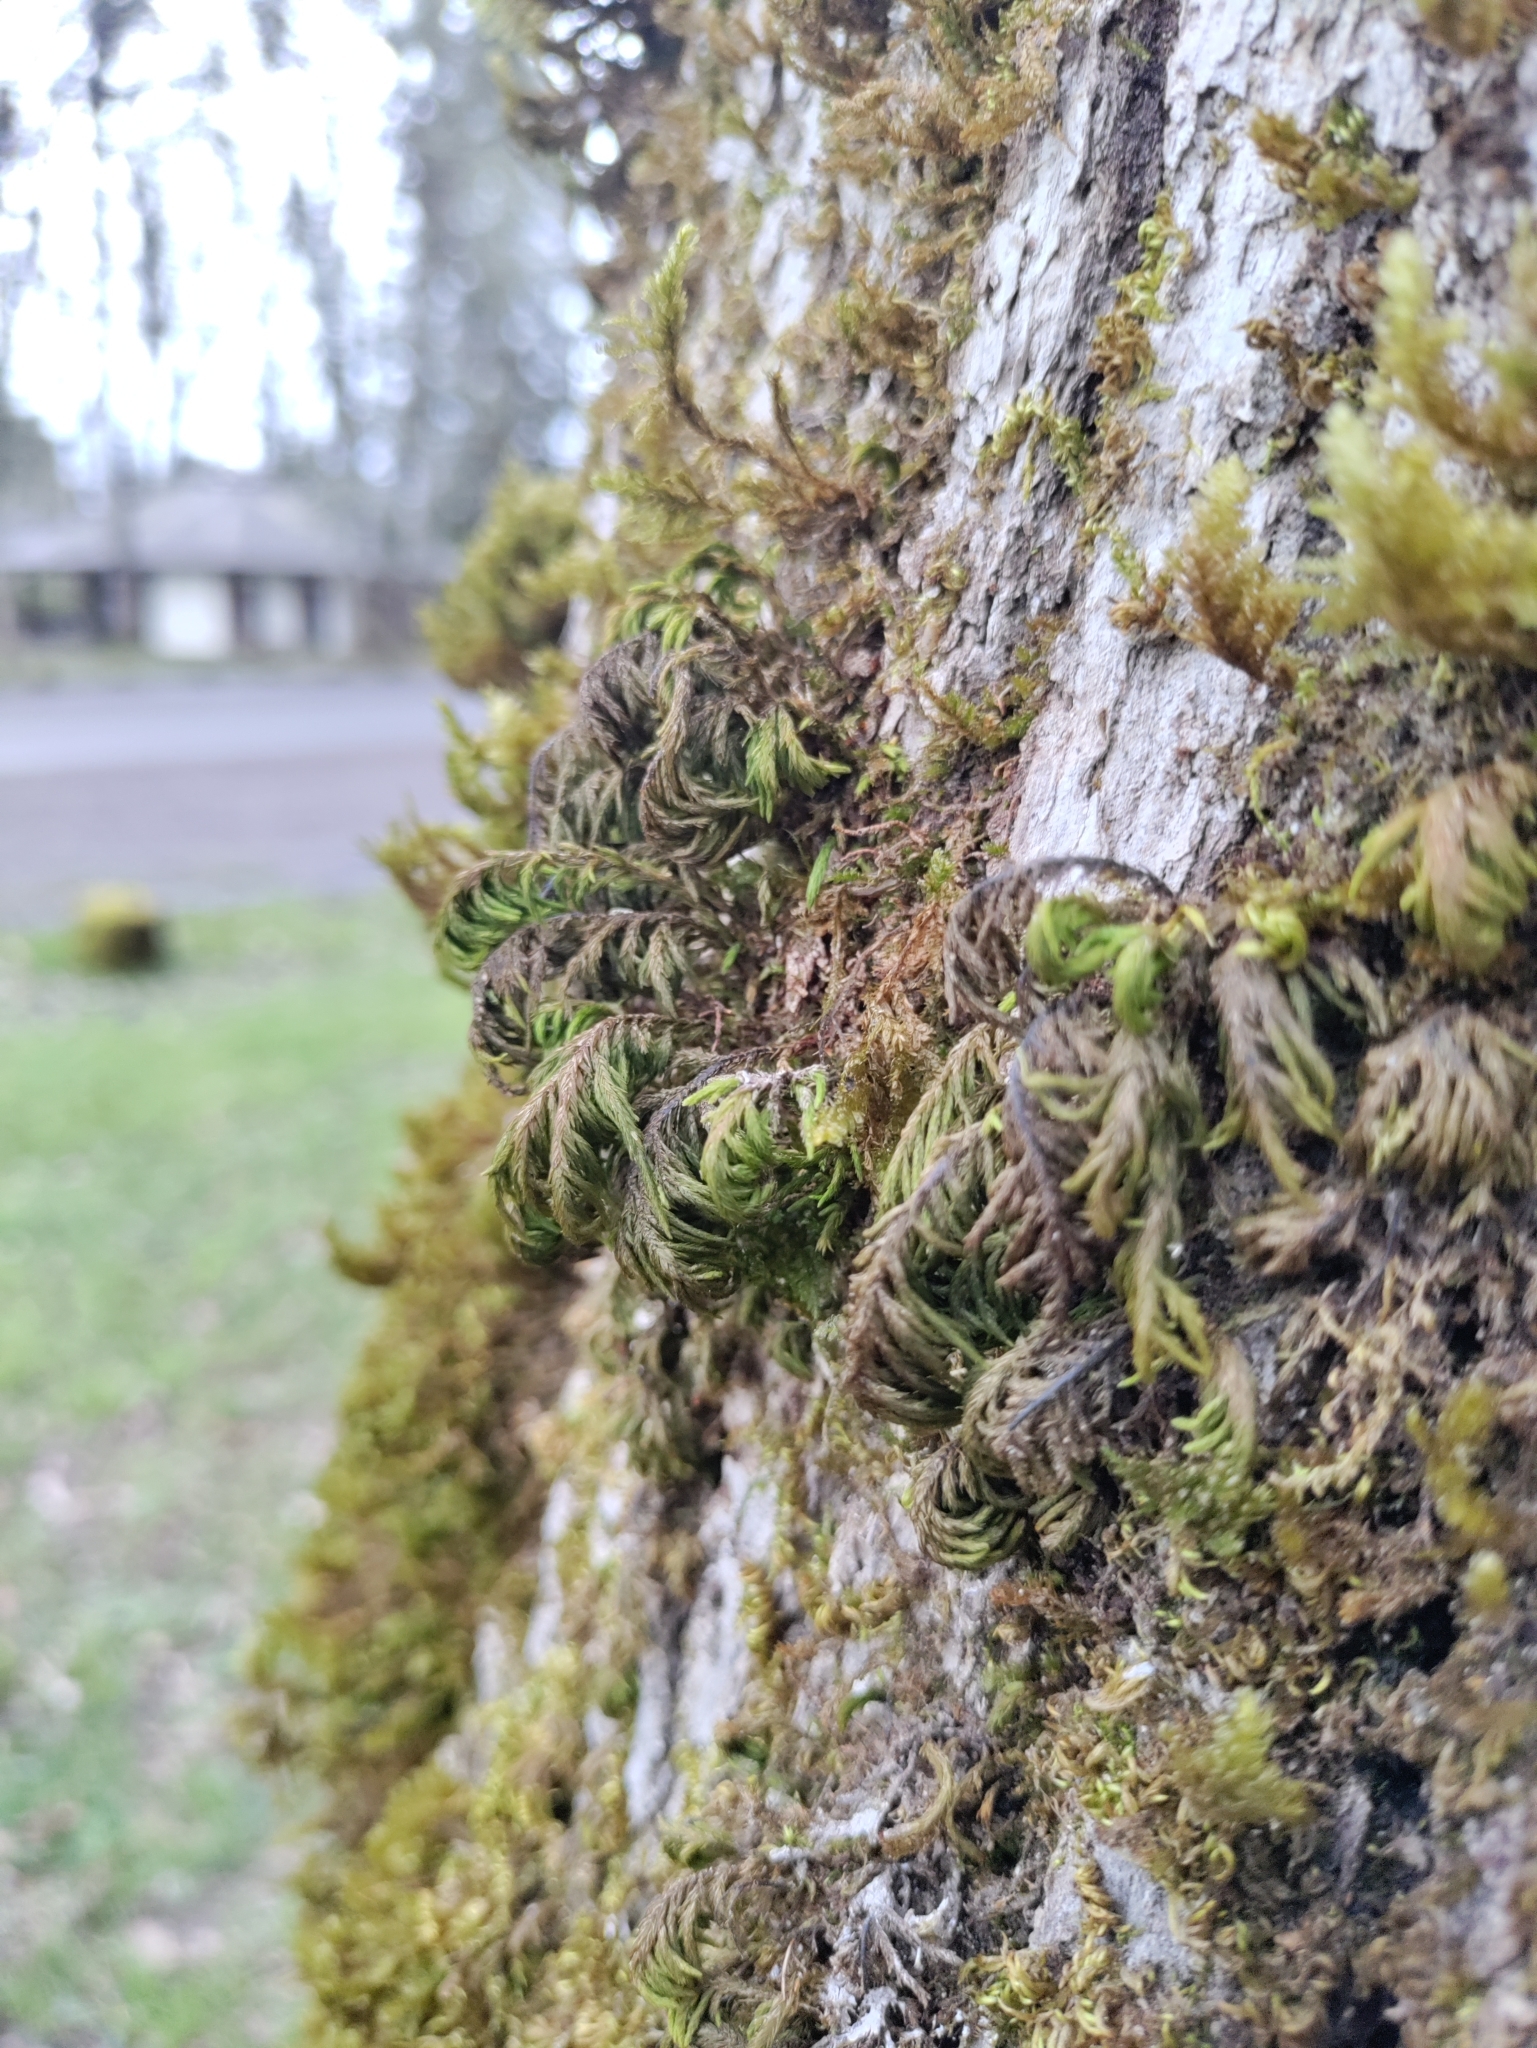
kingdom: Plantae
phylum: Bryophyta
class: Bryopsida
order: Hypnales
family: Cryphaeaceae
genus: Dendroalsia
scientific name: Dendroalsia abietina
